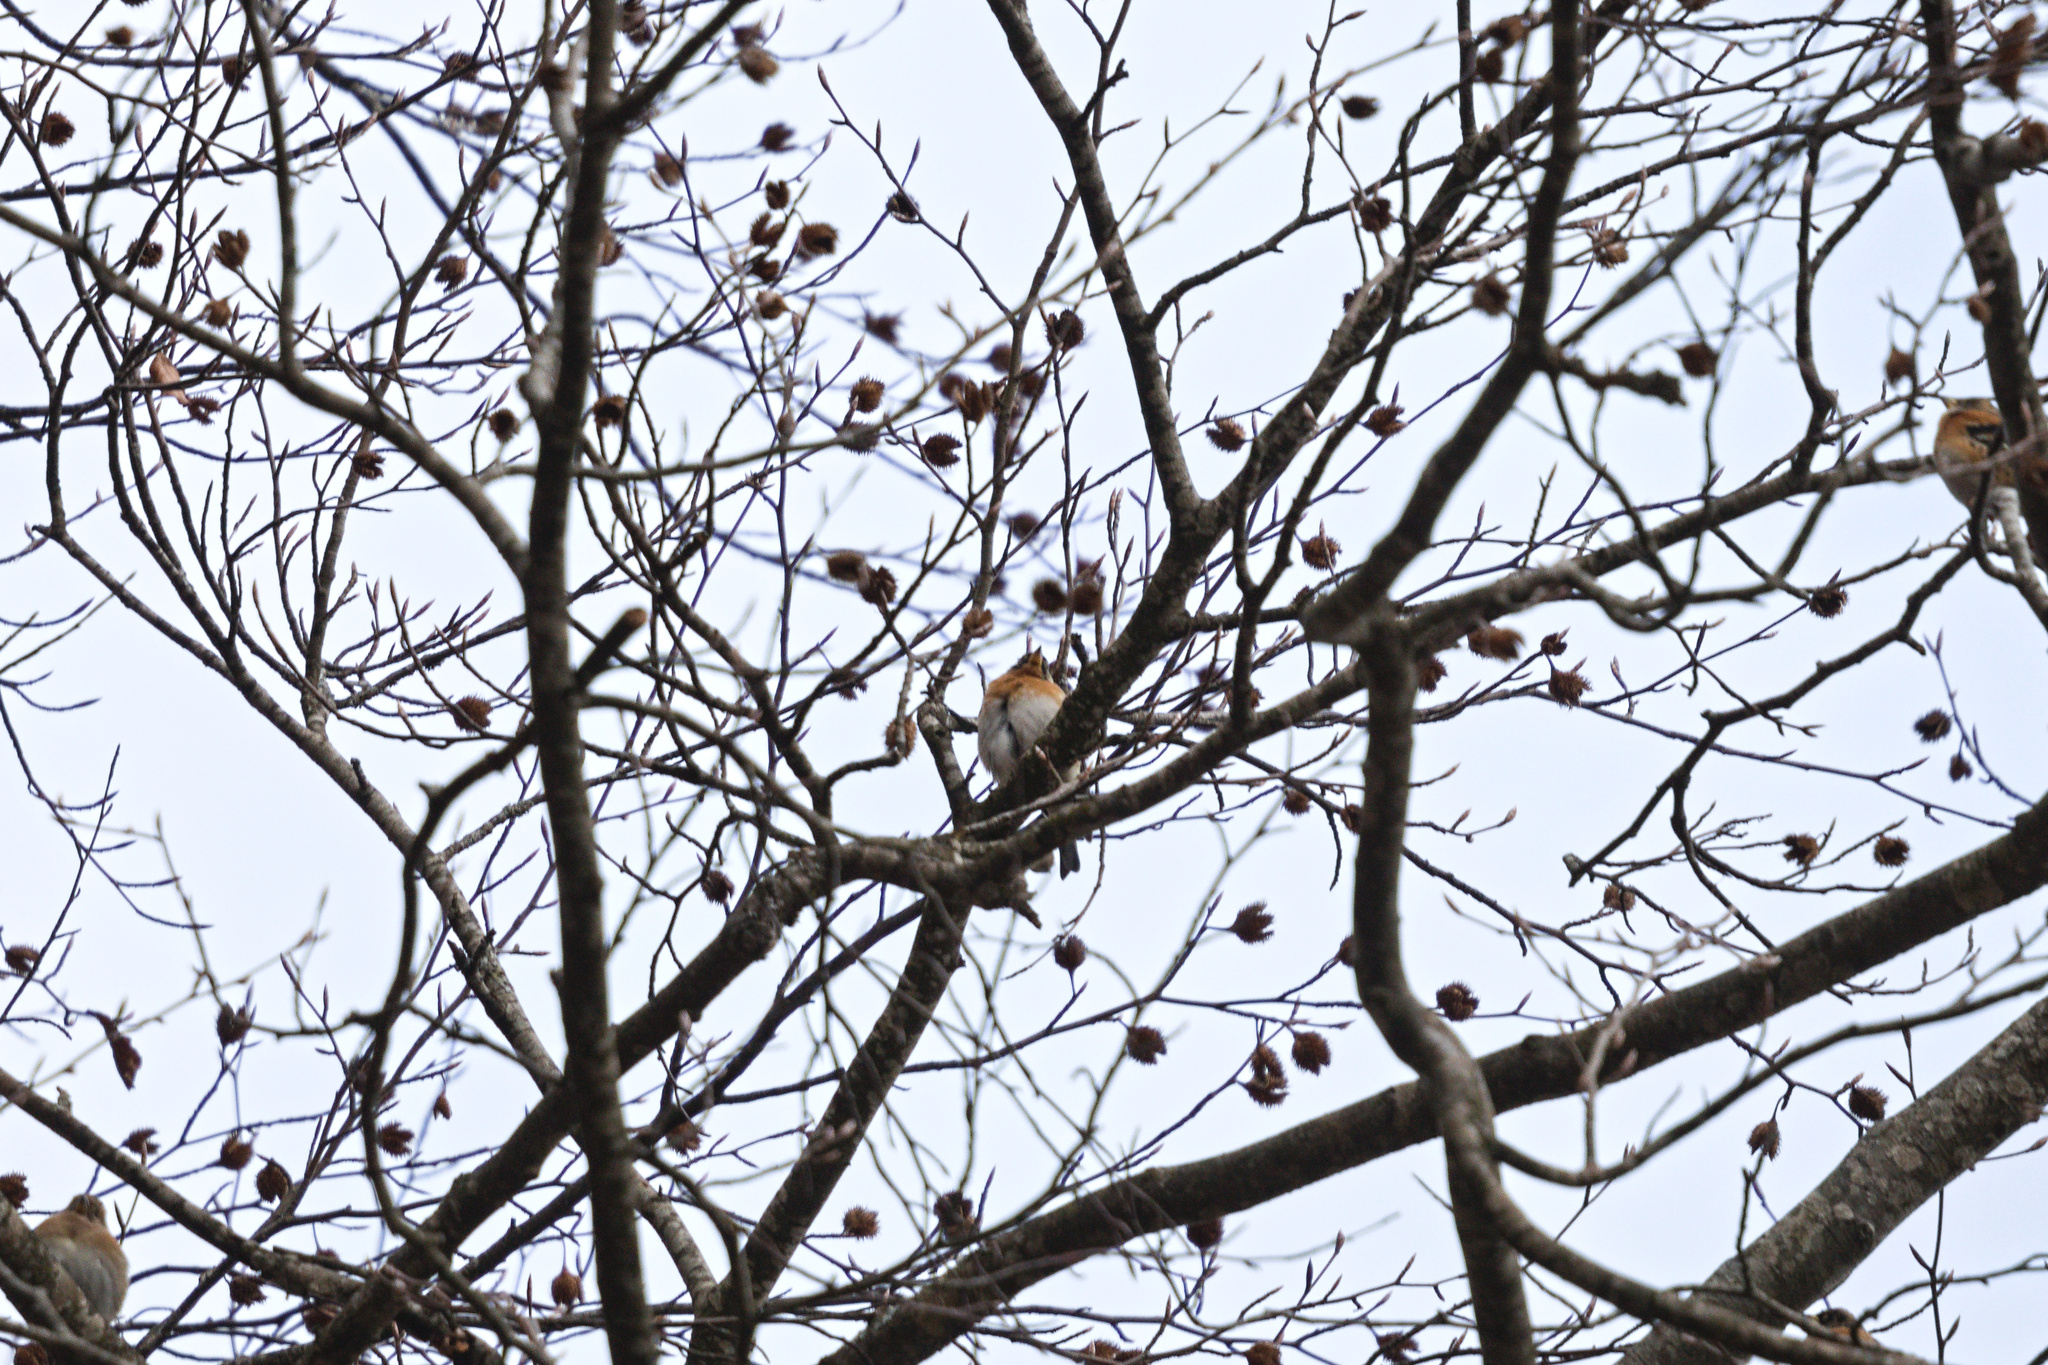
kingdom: Animalia
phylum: Chordata
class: Aves
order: Passeriformes
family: Fringillidae
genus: Fringilla
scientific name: Fringilla montifringilla
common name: Brambling
